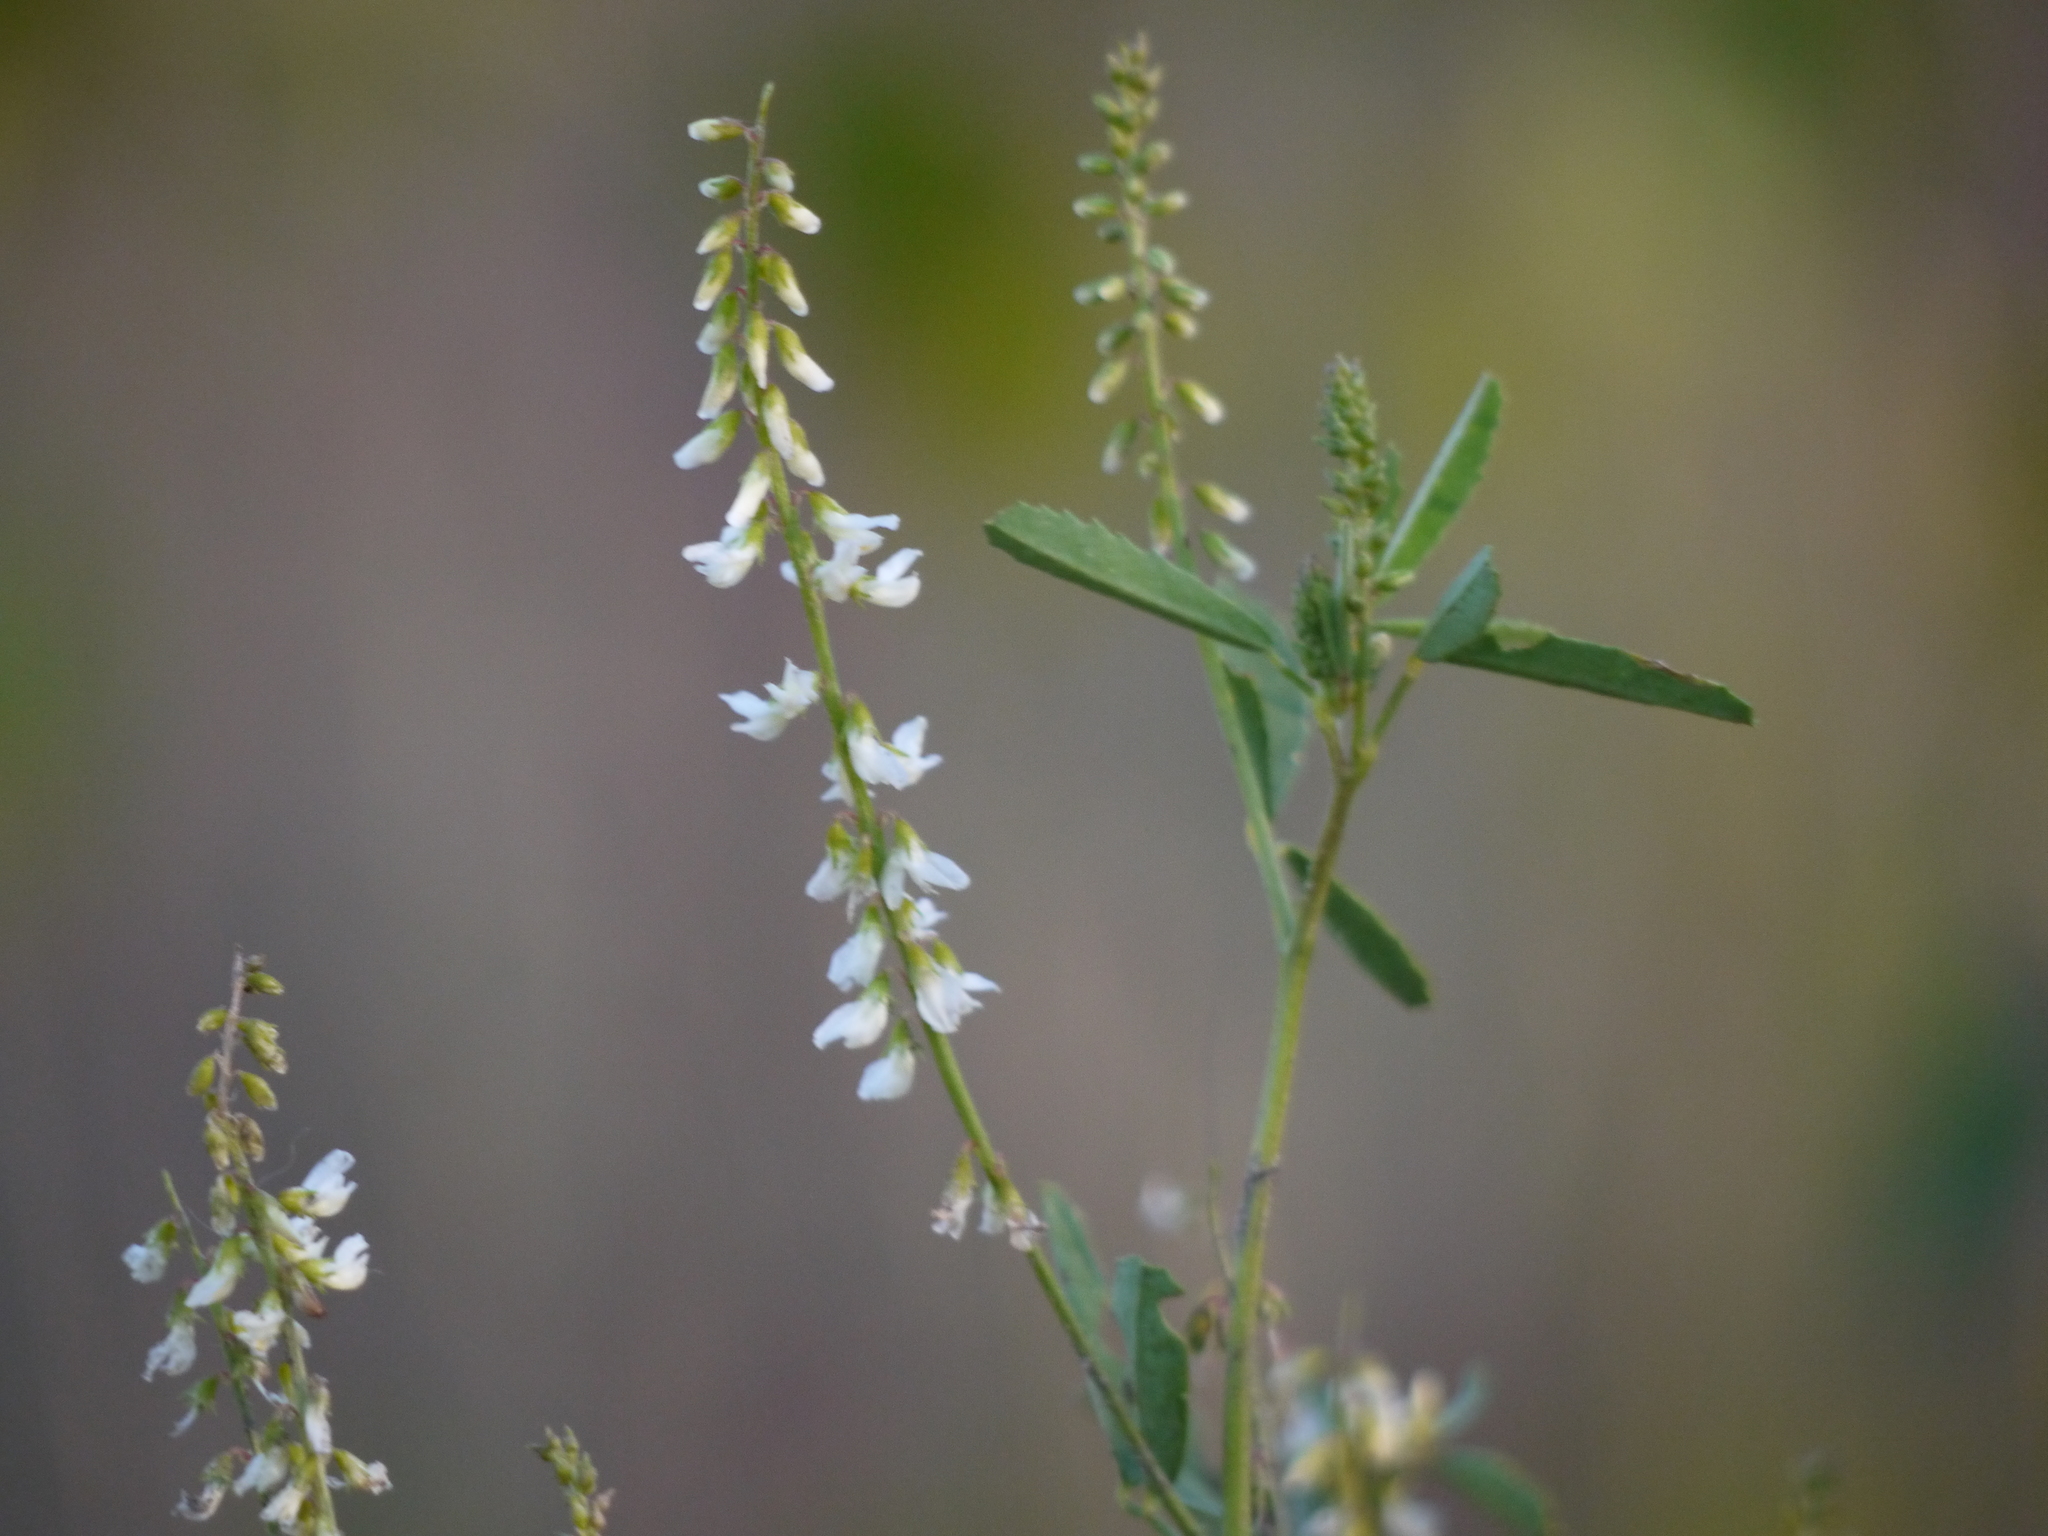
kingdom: Plantae
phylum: Tracheophyta
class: Magnoliopsida
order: Fabales
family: Fabaceae
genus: Melilotus
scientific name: Melilotus albus
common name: White melilot
